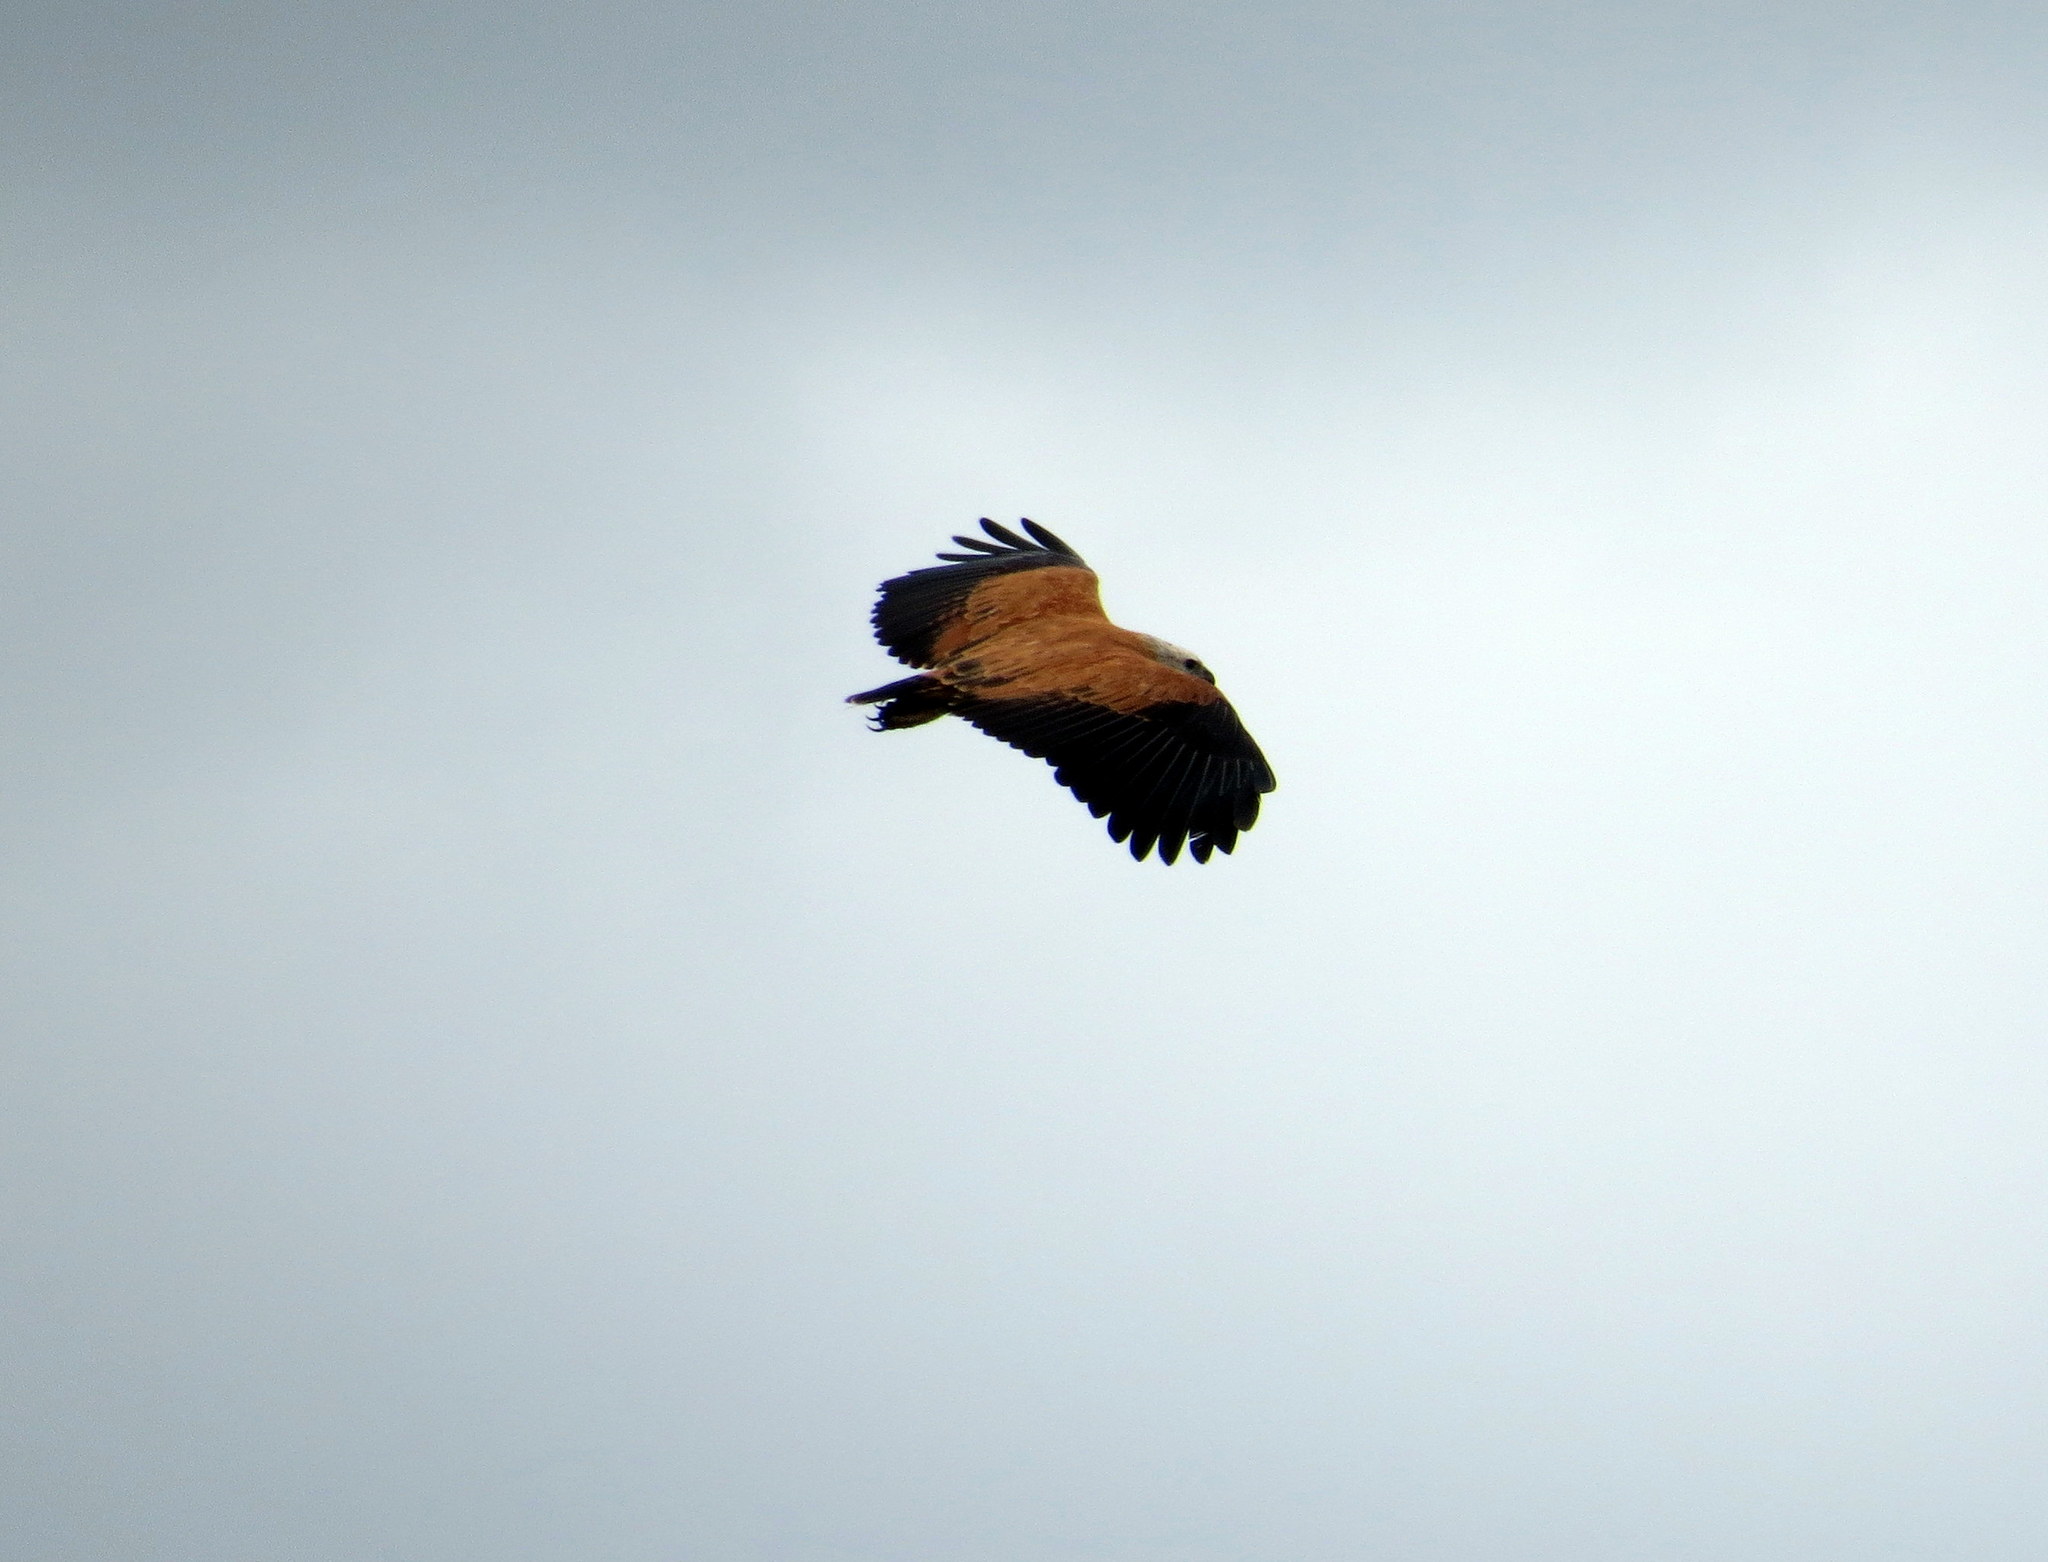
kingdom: Animalia
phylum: Chordata
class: Aves
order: Accipitriformes
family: Accipitridae
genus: Busarellus
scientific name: Busarellus nigricollis
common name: Black-collared hawk
